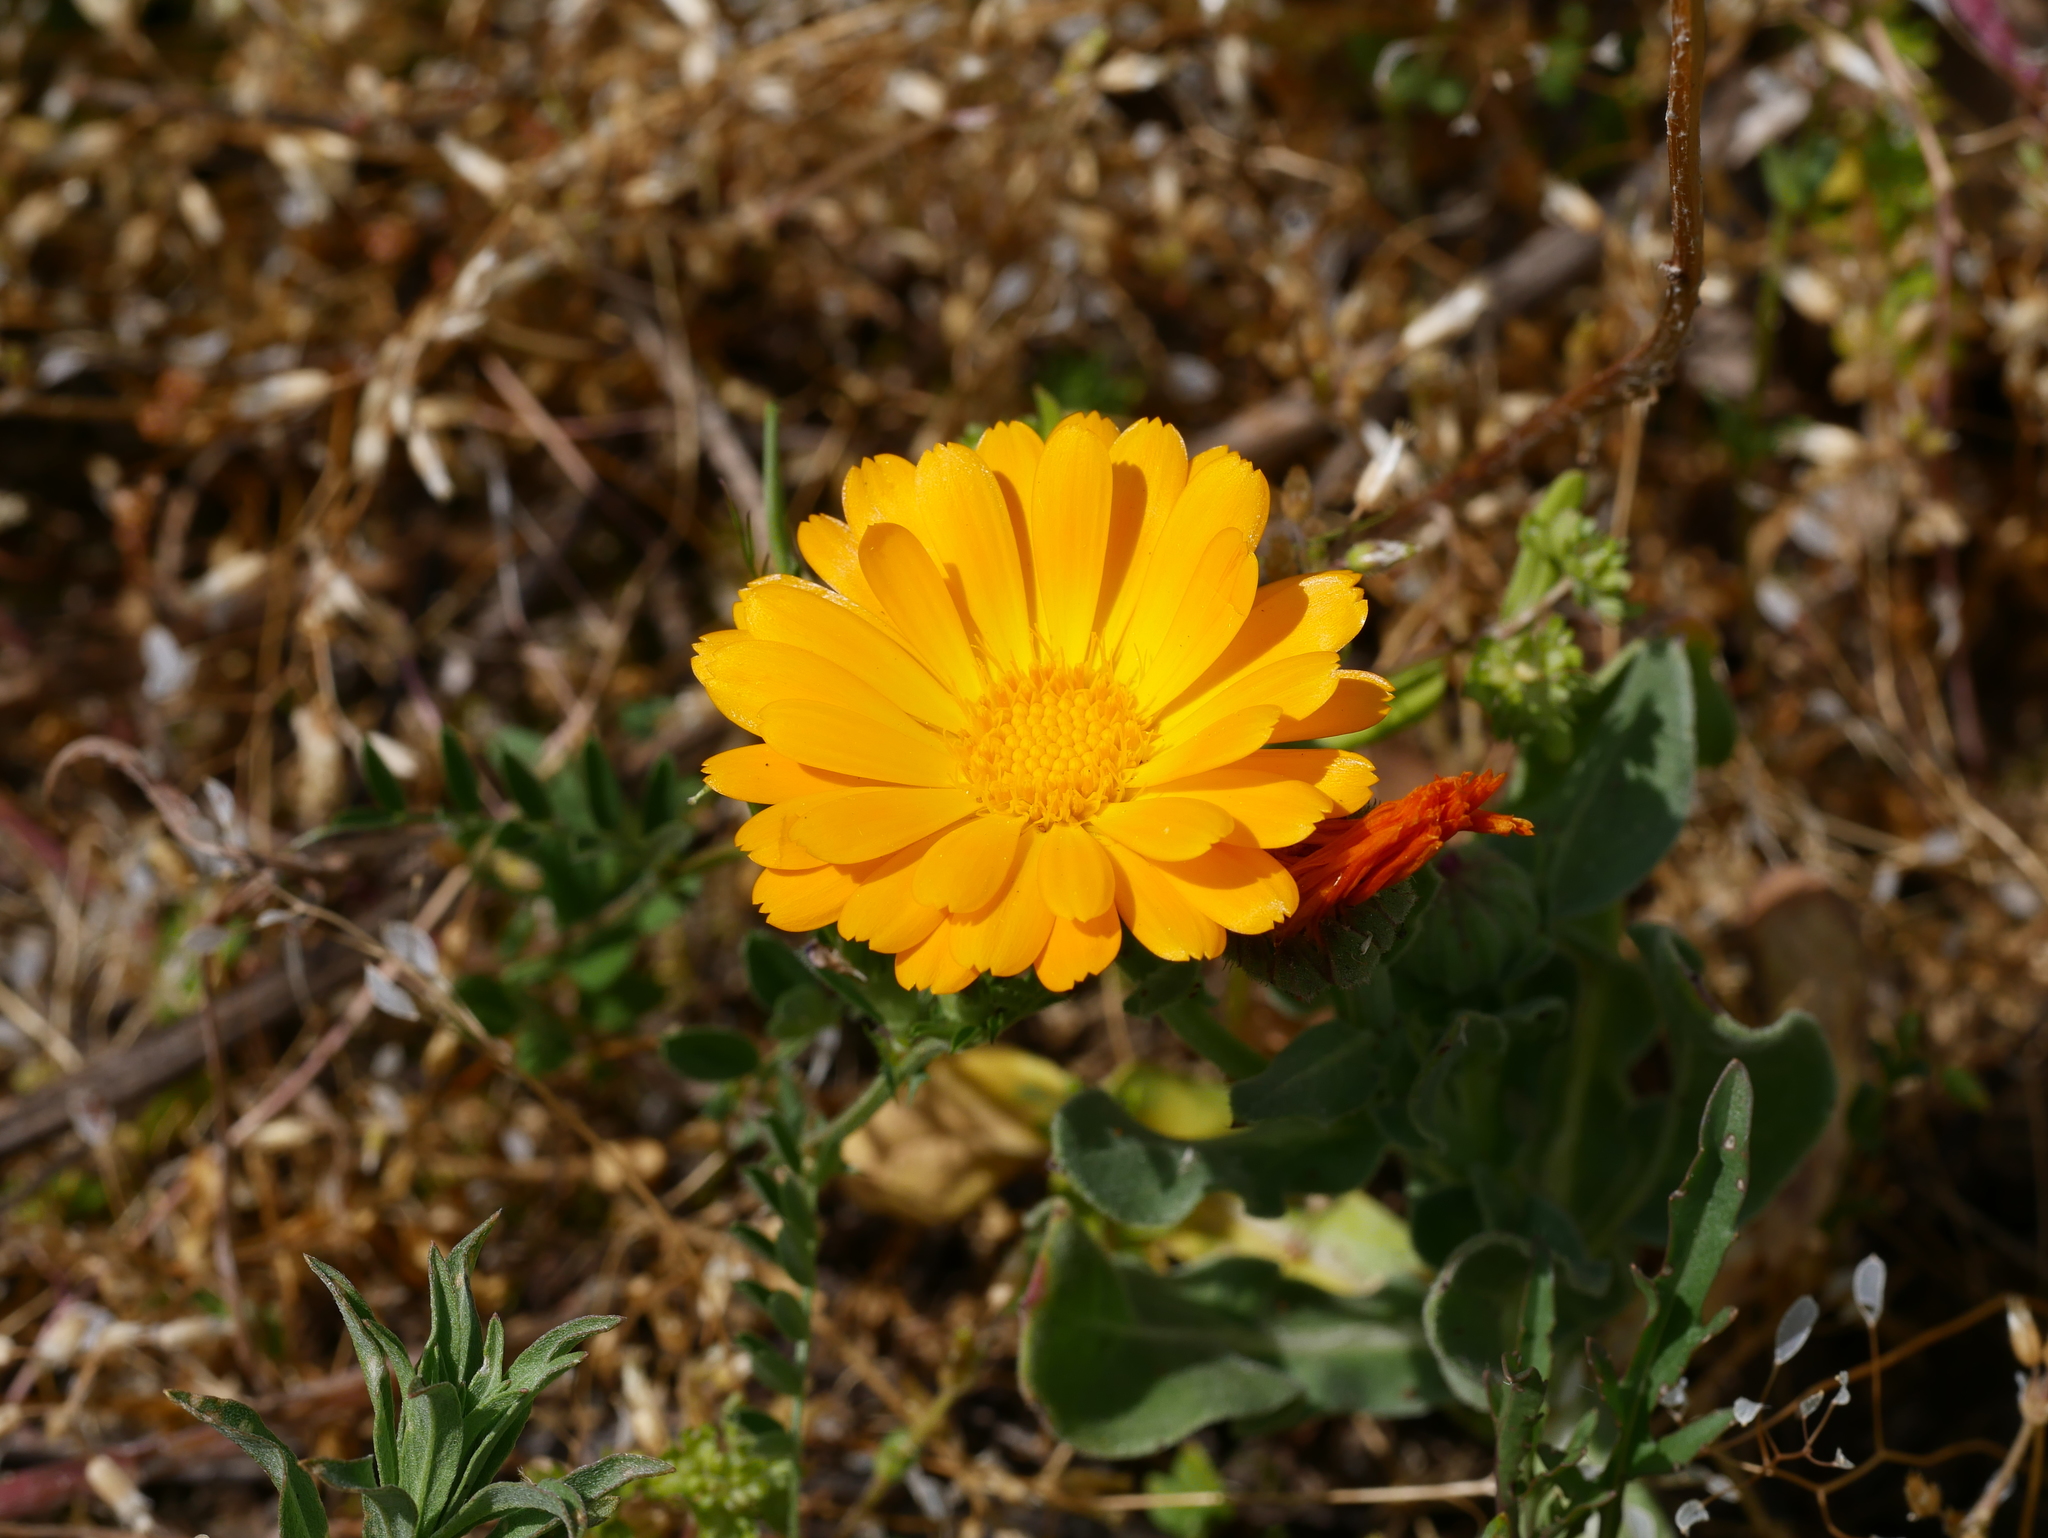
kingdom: Plantae
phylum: Tracheophyta
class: Magnoliopsida
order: Asterales
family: Asteraceae
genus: Calendula
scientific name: Calendula officinalis
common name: Pot marigold
